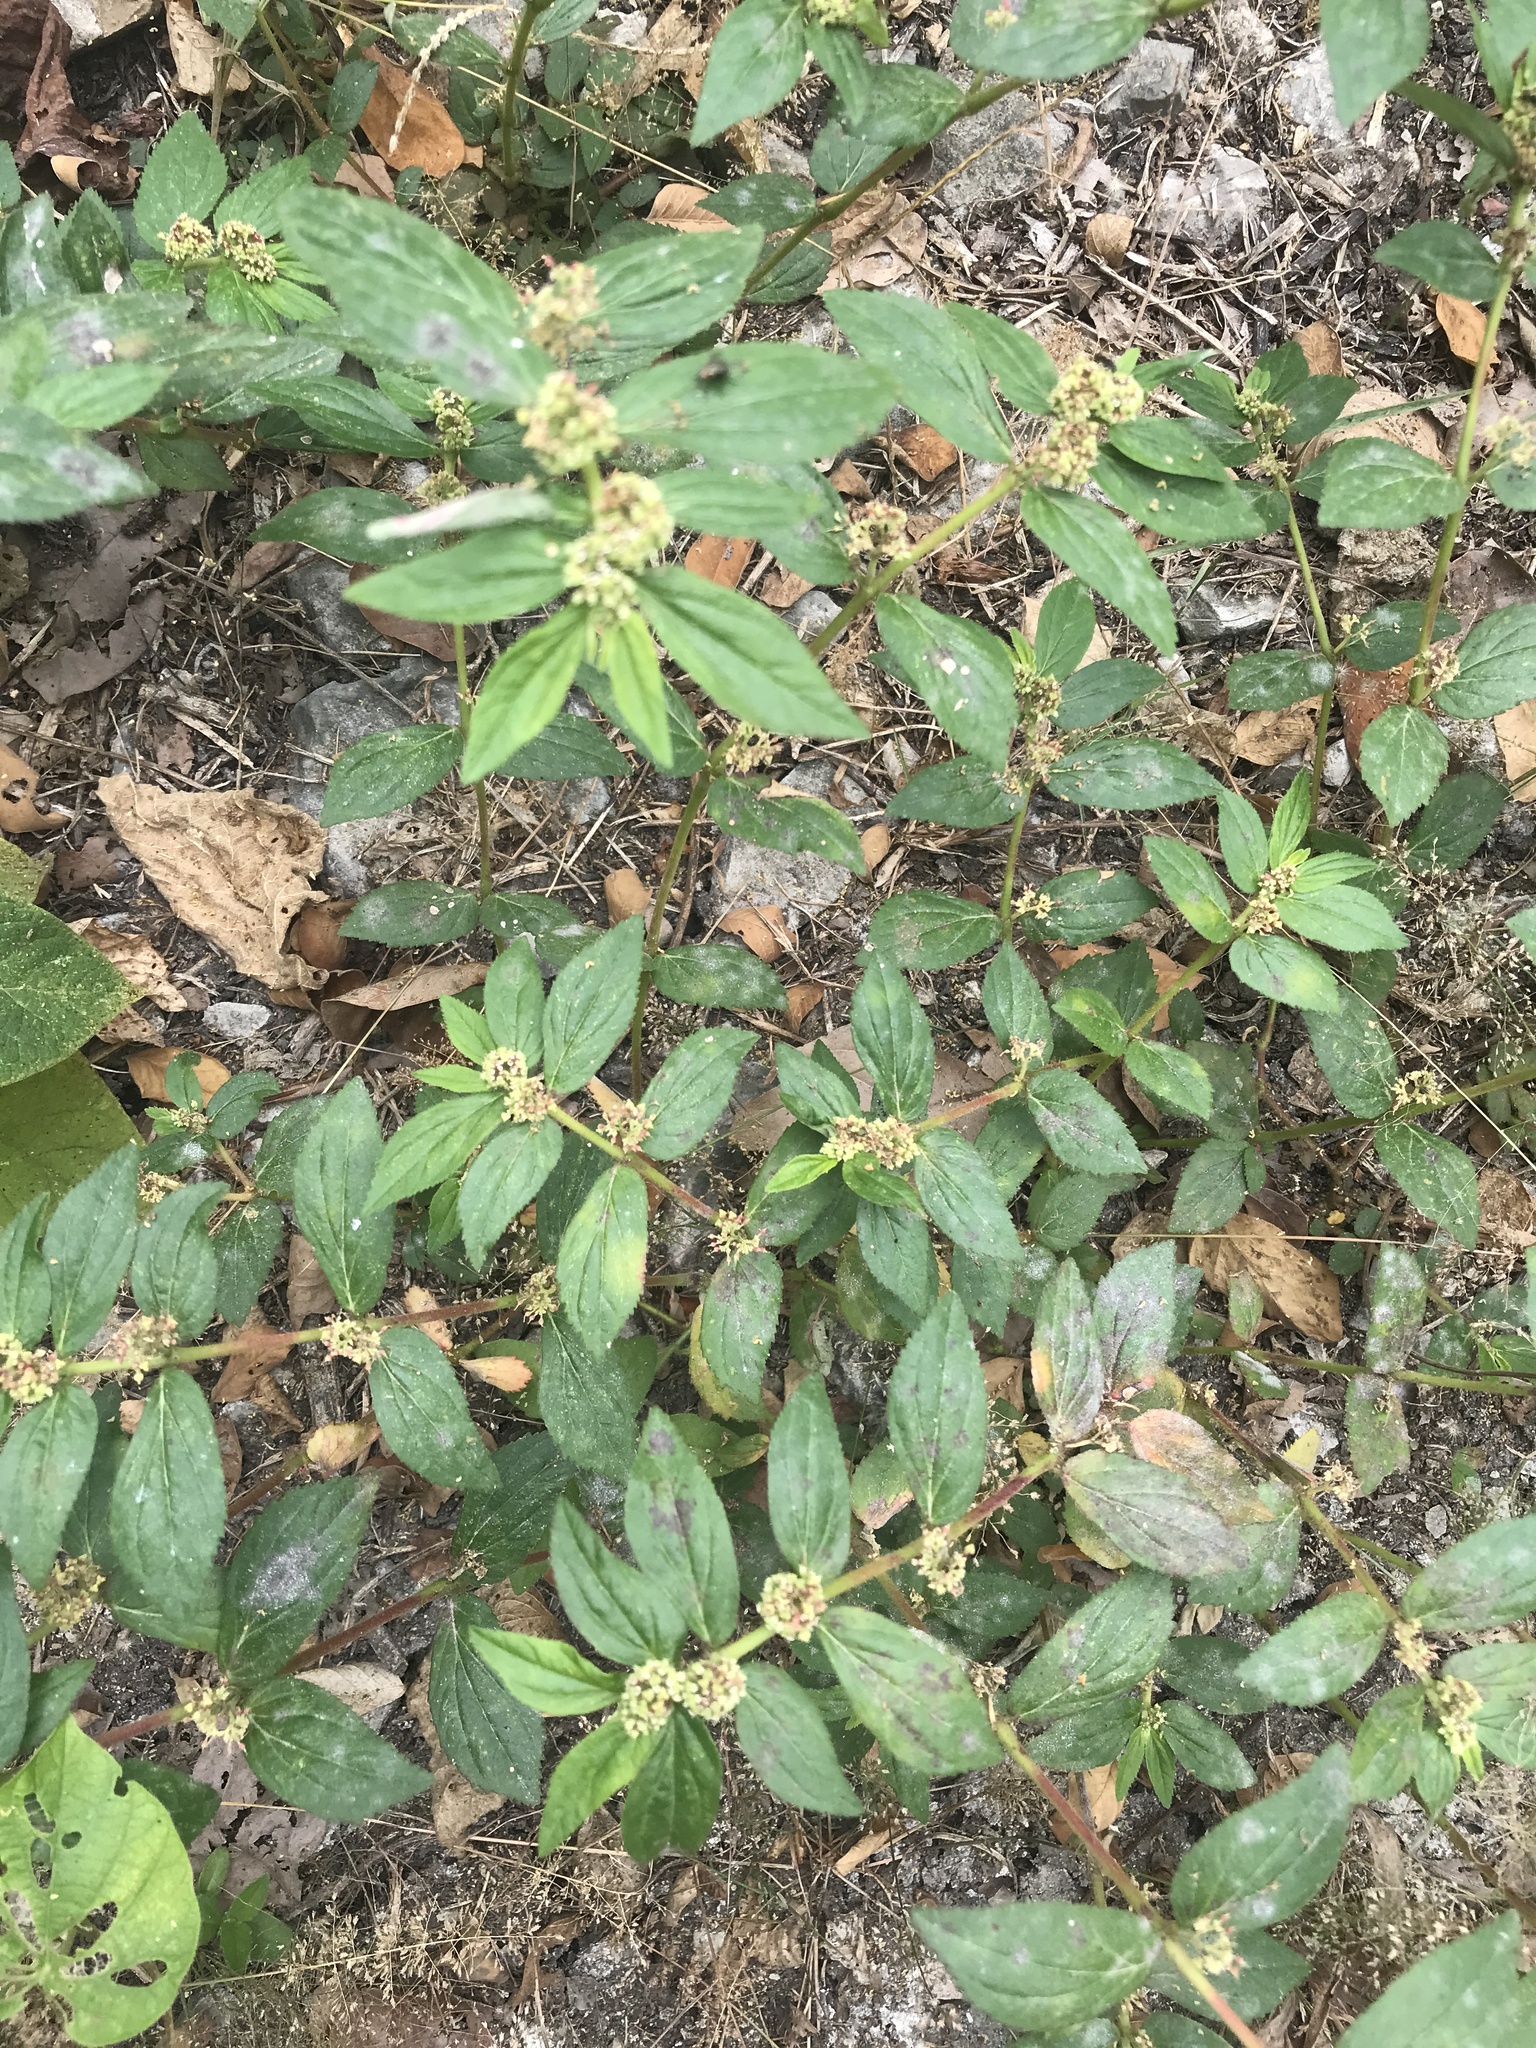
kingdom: Plantae
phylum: Tracheophyta
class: Magnoliopsida
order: Malpighiales
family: Euphorbiaceae
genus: Euphorbia
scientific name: Euphorbia hirta
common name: Pillpod sandmat
